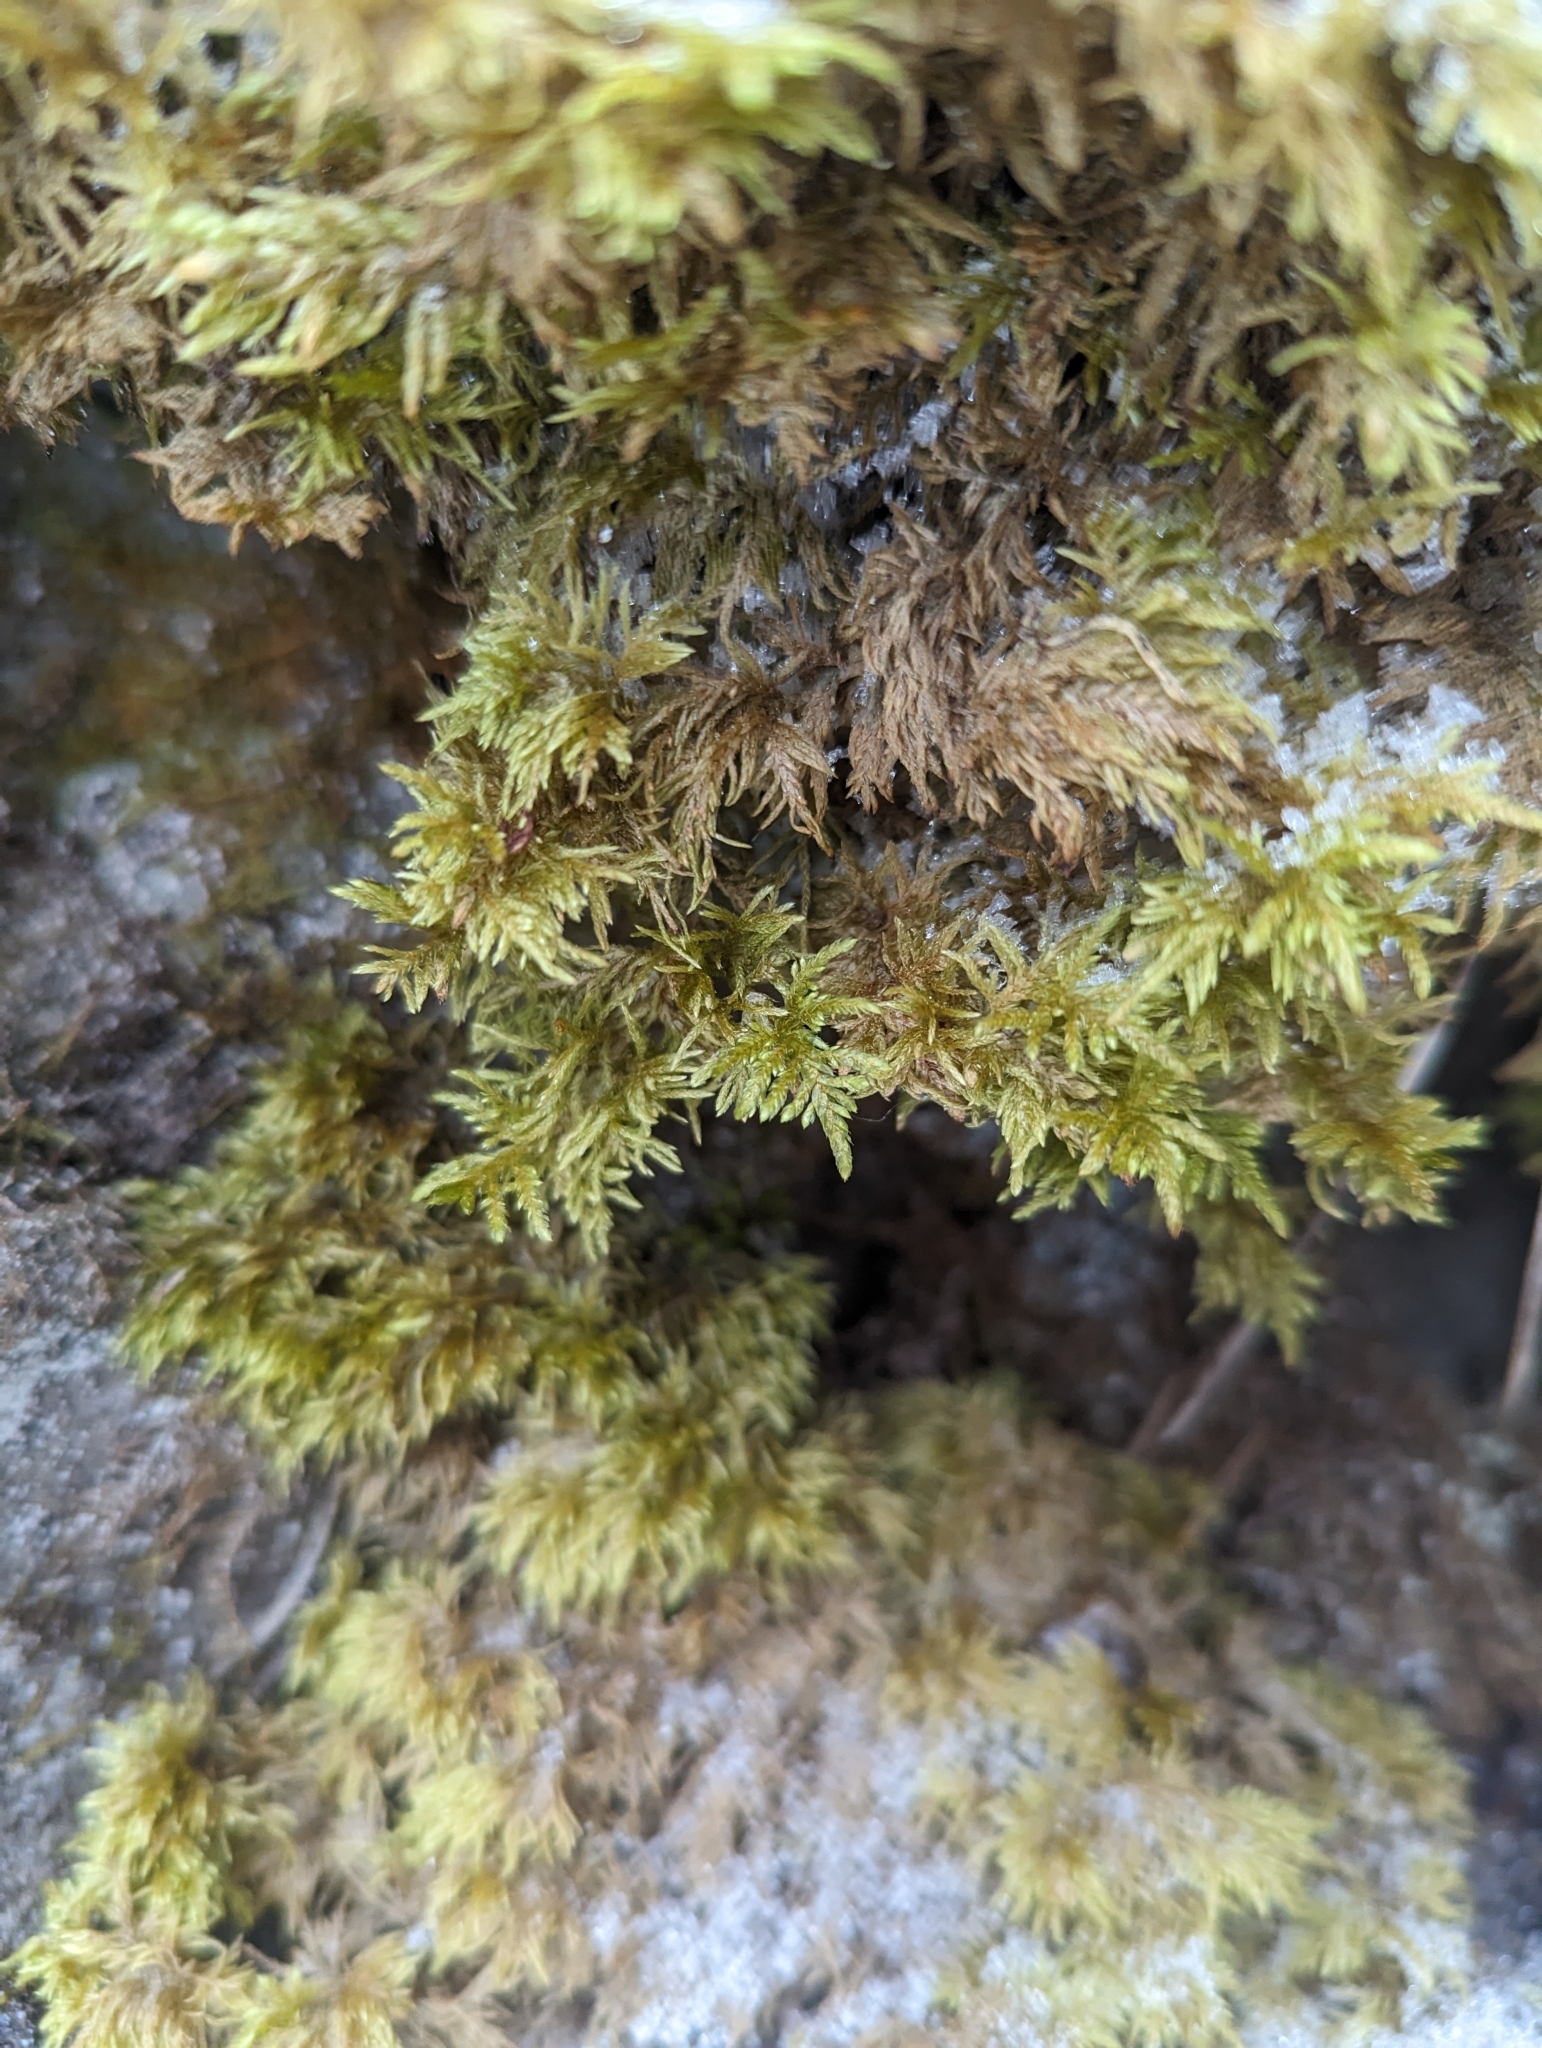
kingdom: Plantae
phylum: Bryophyta
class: Bryopsida
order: Hypnales
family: Hylocomiaceae
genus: Hylocomium
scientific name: Hylocomium splendens
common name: Stairstep moss
